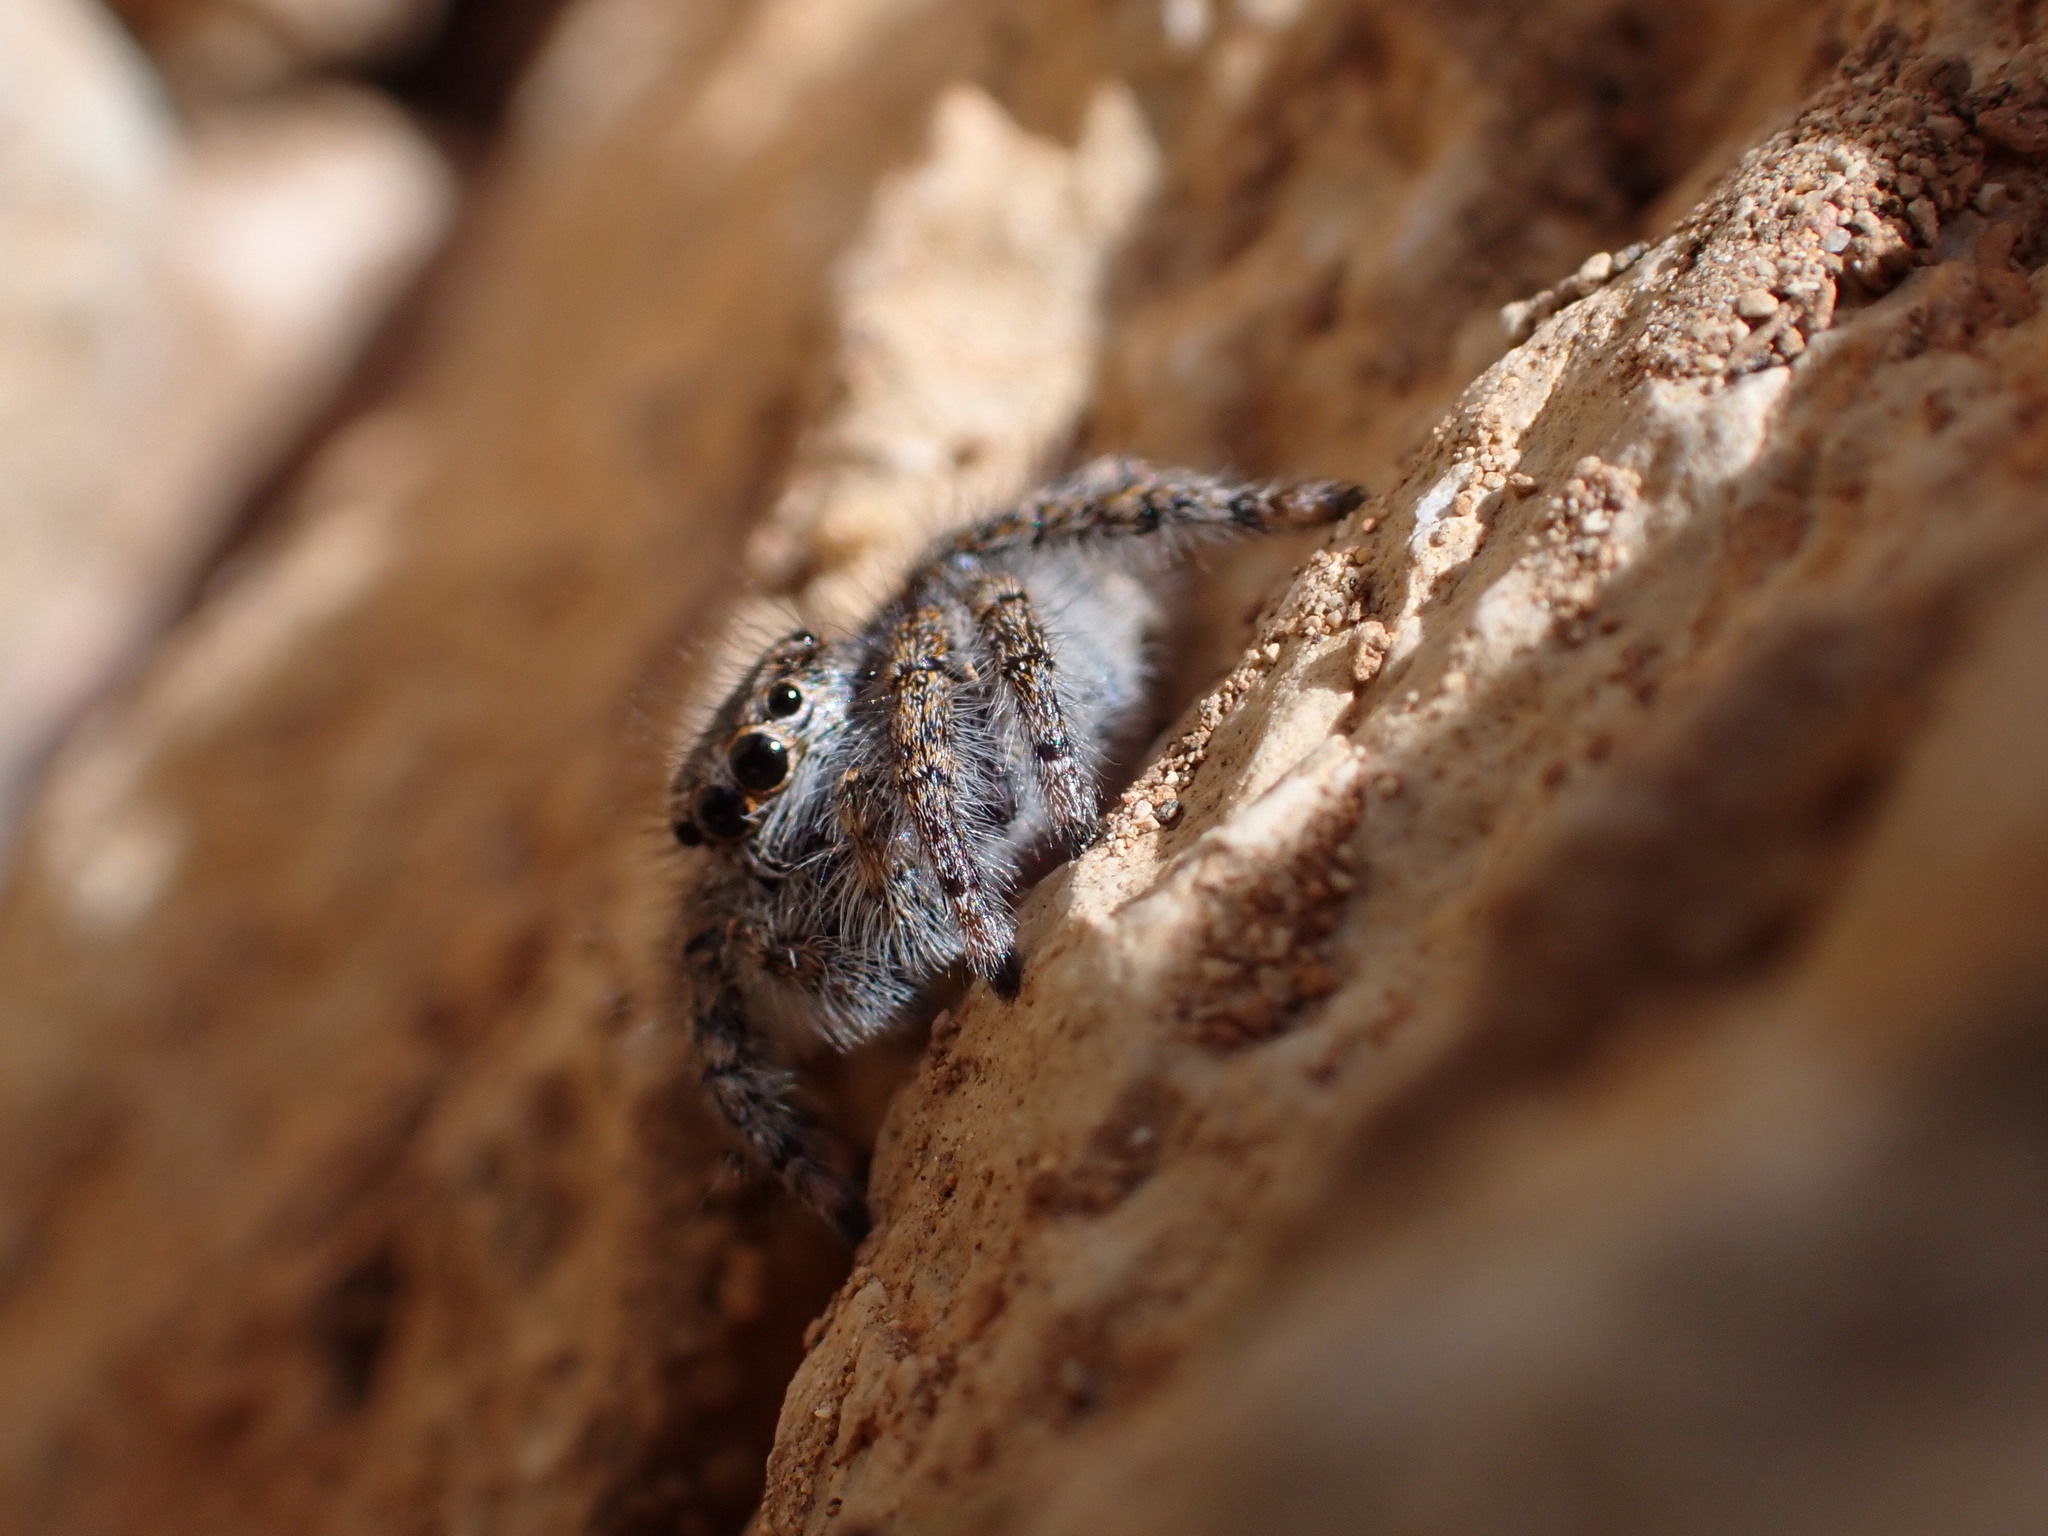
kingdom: Animalia
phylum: Arthropoda
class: Arachnida
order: Araneae
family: Salticidae
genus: Philaeus
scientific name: Philaeus chrysops
